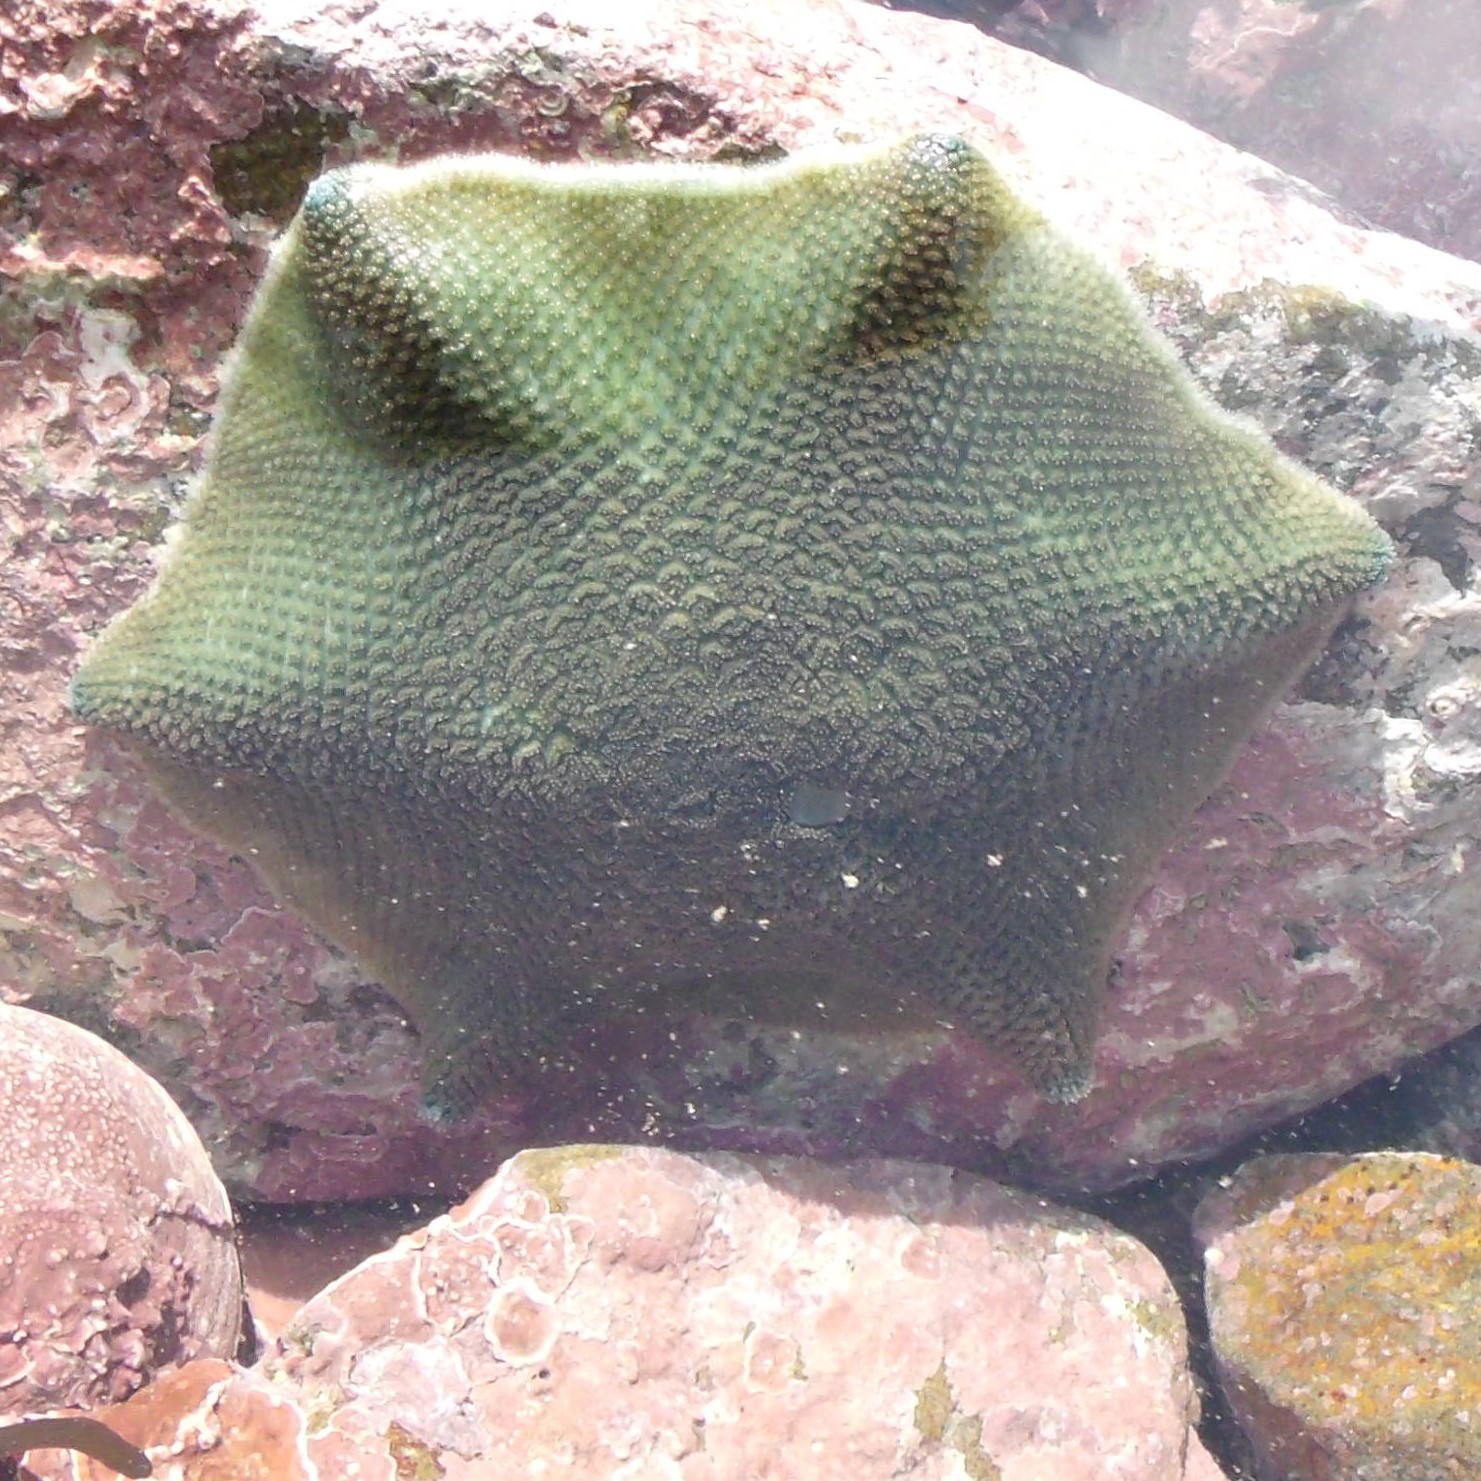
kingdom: Animalia
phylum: Echinodermata
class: Asteroidea
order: Valvatida
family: Asterinidae
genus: Patiriella
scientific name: Patiriella regularis
